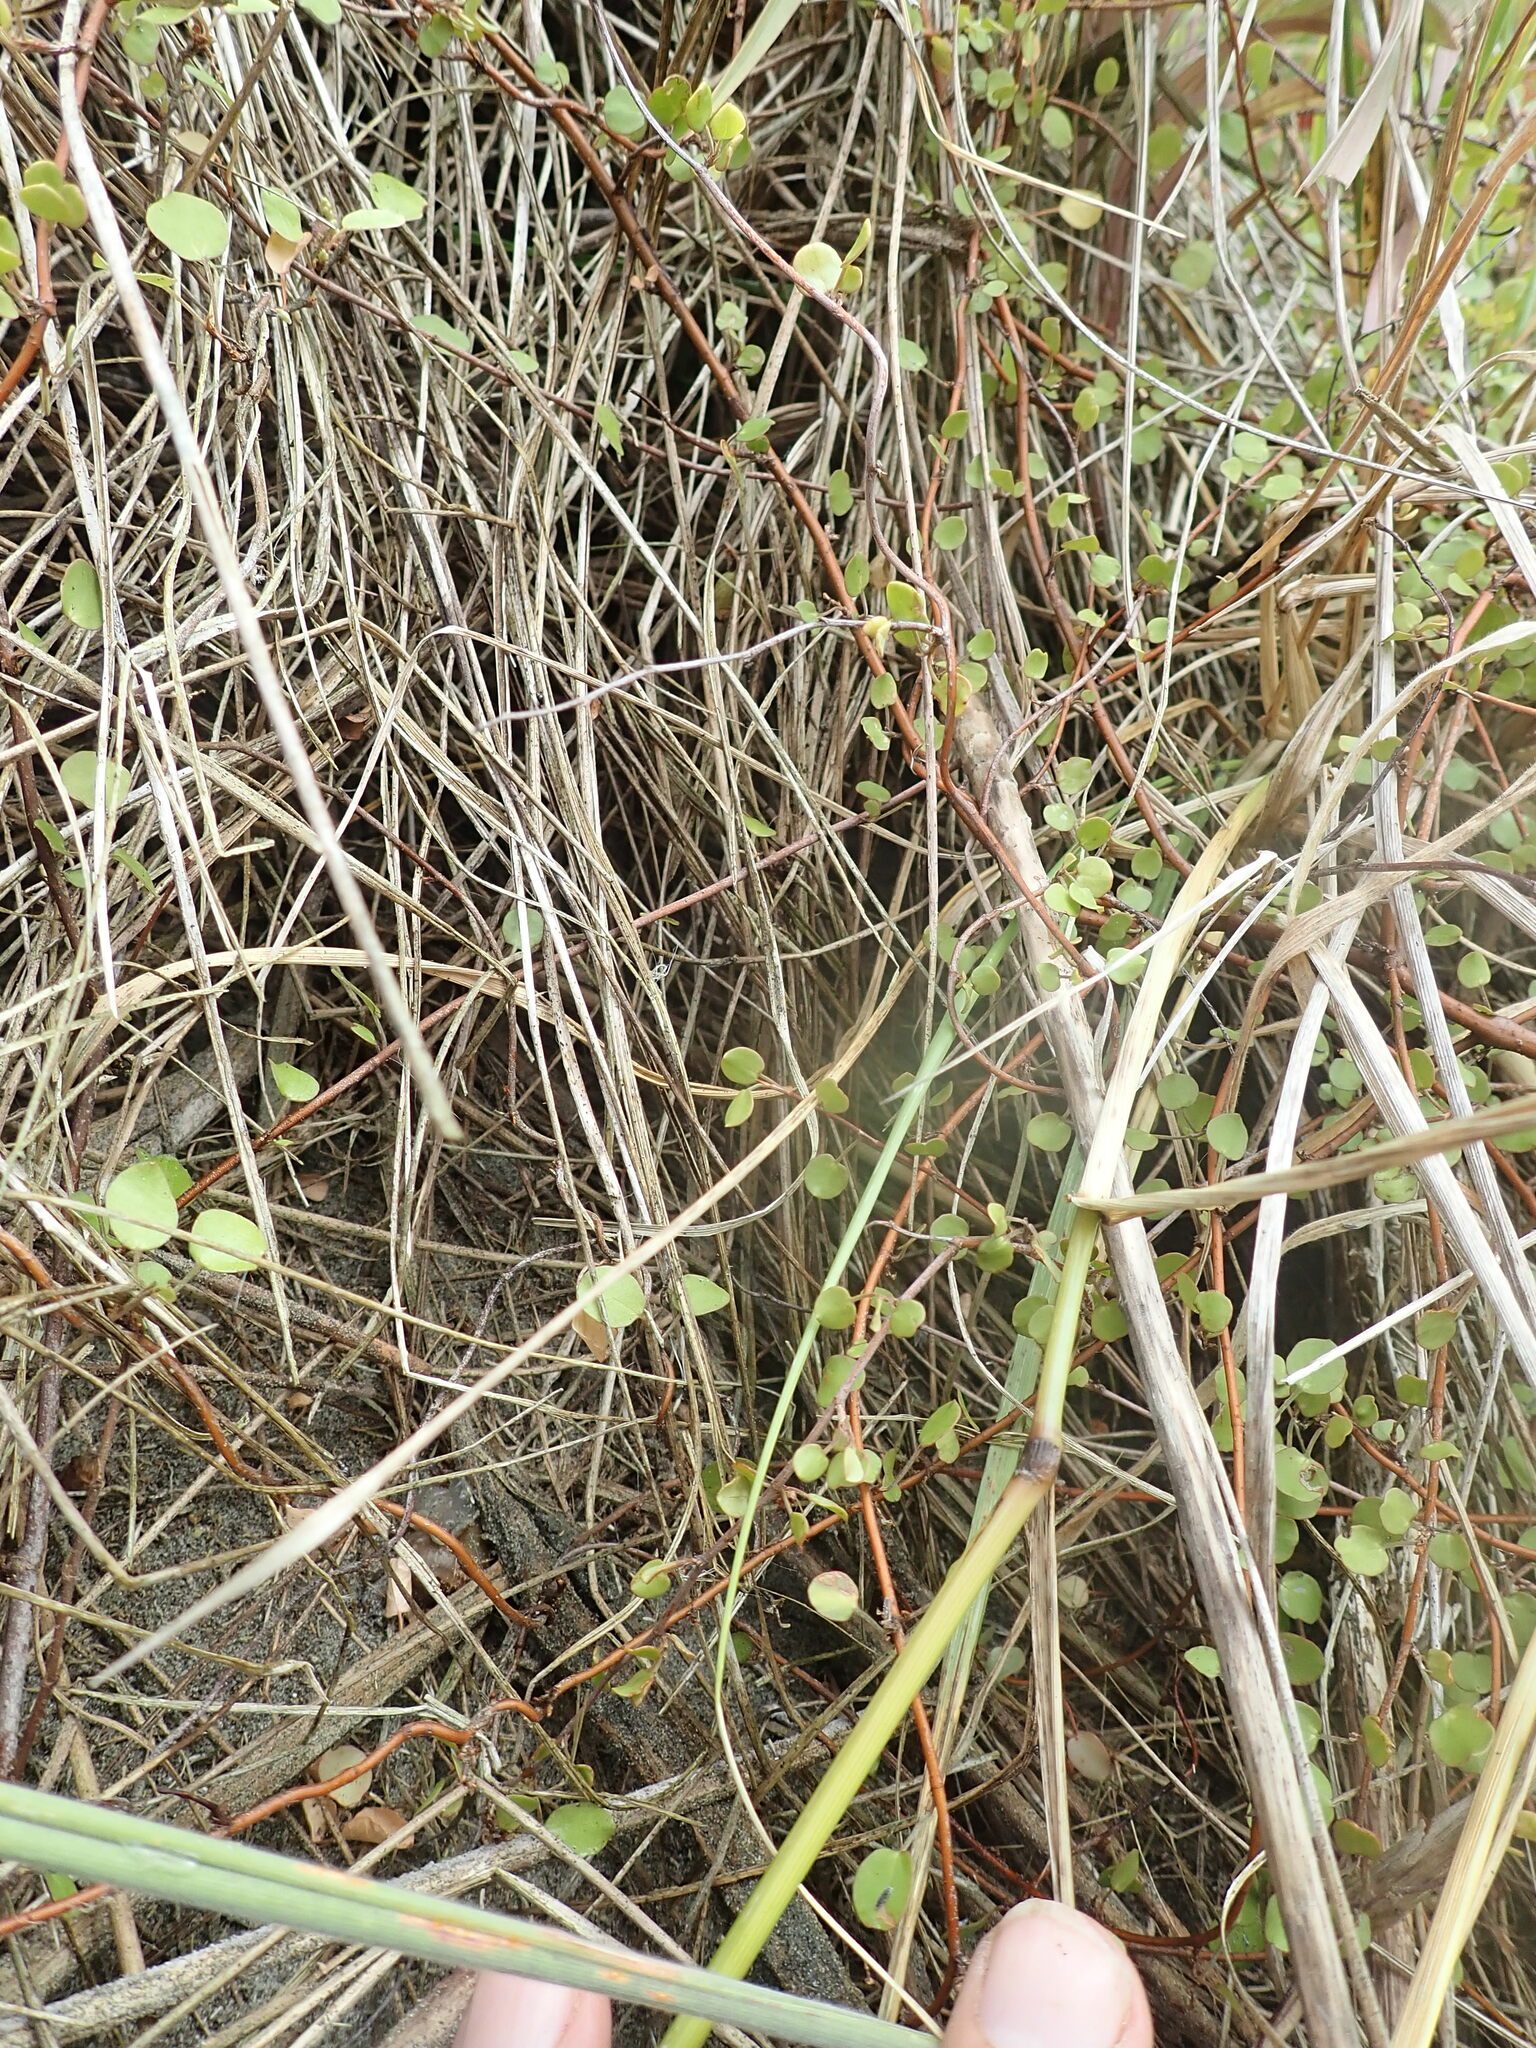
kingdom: Plantae
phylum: Tracheophyta
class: Magnoliopsida
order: Caryophyllales
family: Polygonaceae
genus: Muehlenbeckia
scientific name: Muehlenbeckia complexa
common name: Wireplant
